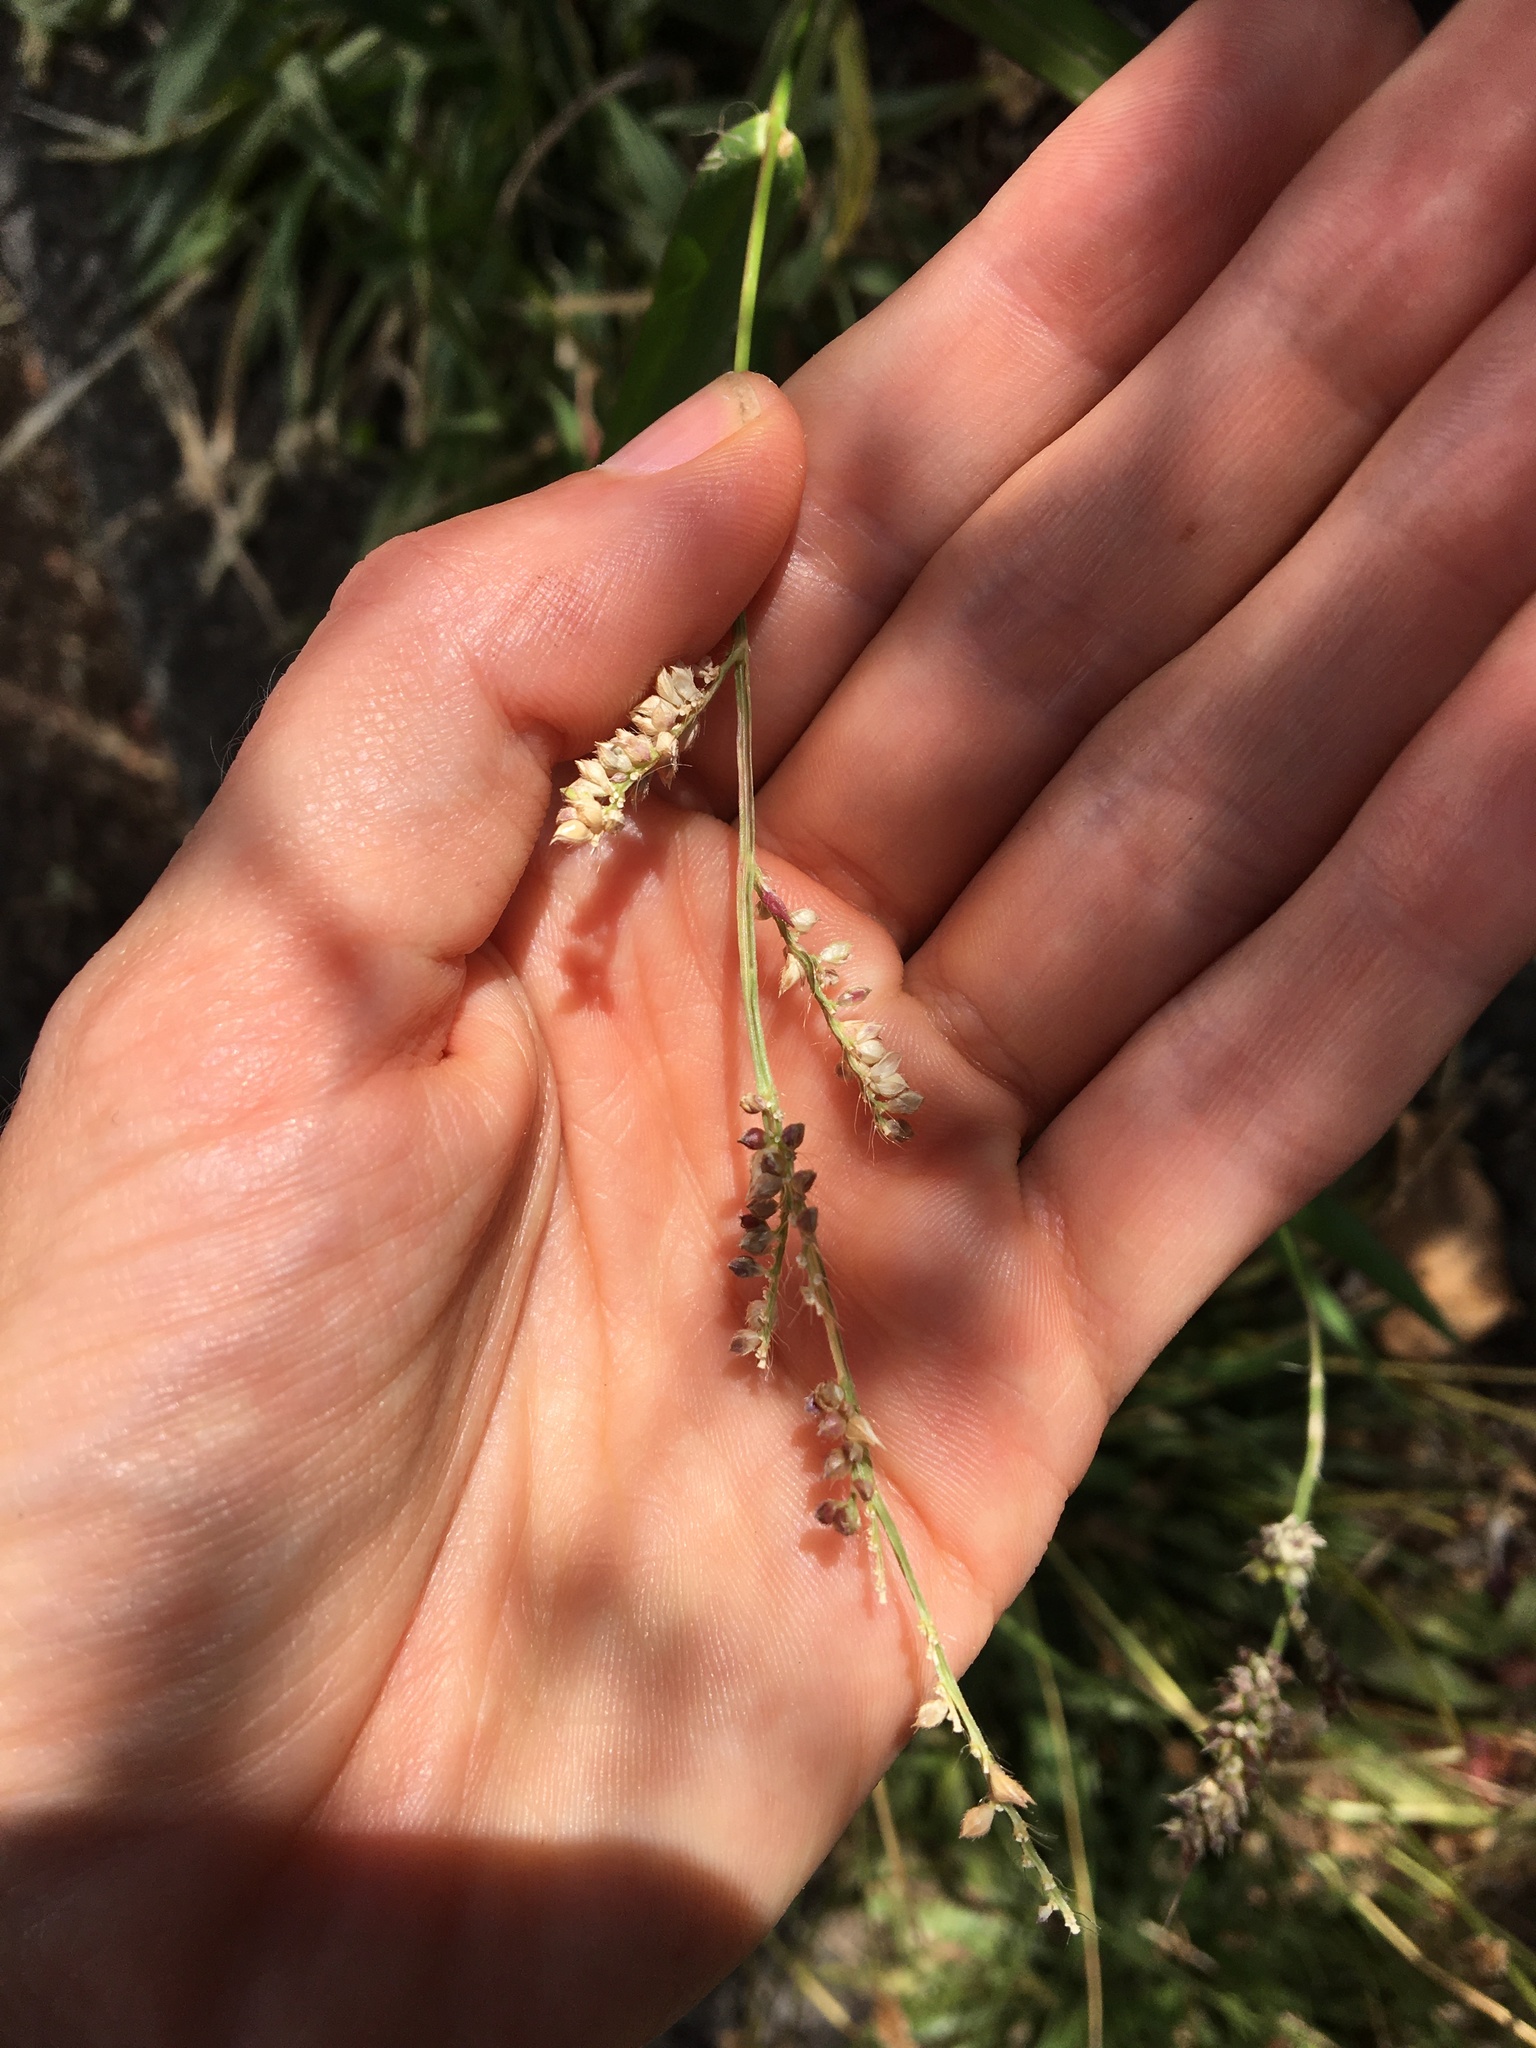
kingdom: Plantae
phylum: Tracheophyta
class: Liliopsida
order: Poales
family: Poaceae
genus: Echinochloa
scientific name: Echinochloa crus-galli
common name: Cockspur
